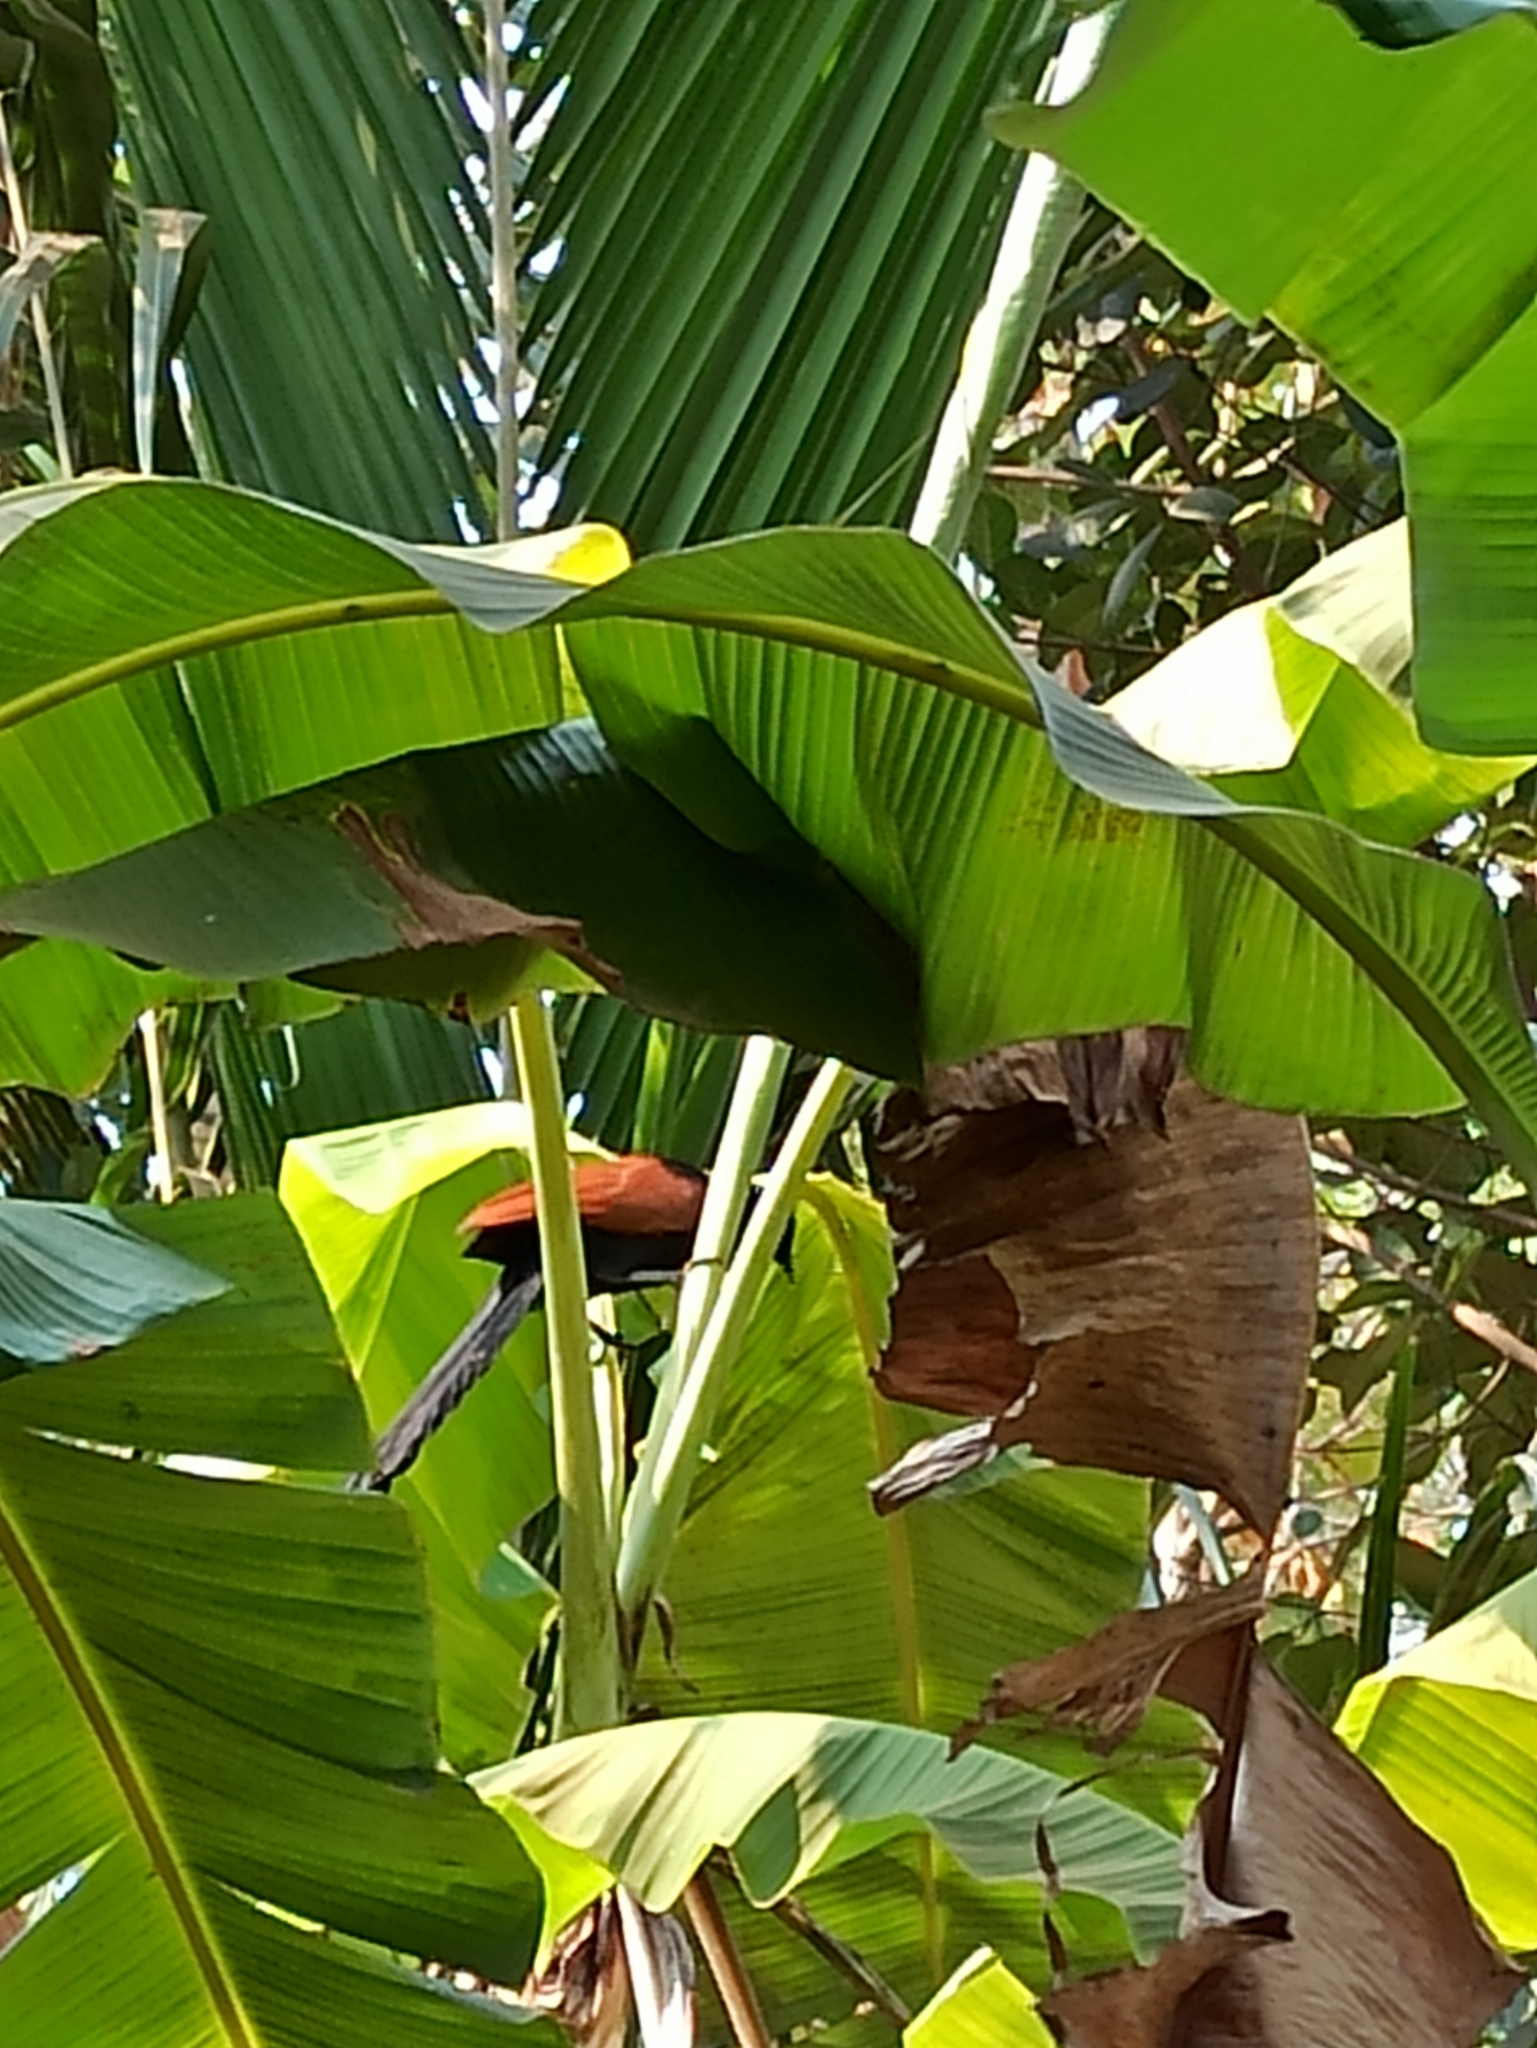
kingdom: Animalia
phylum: Chordata
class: Aves
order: Cuculiformes
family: Cuculidae
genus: Centropus
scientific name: Centropus sinensis
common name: Greater coucal
